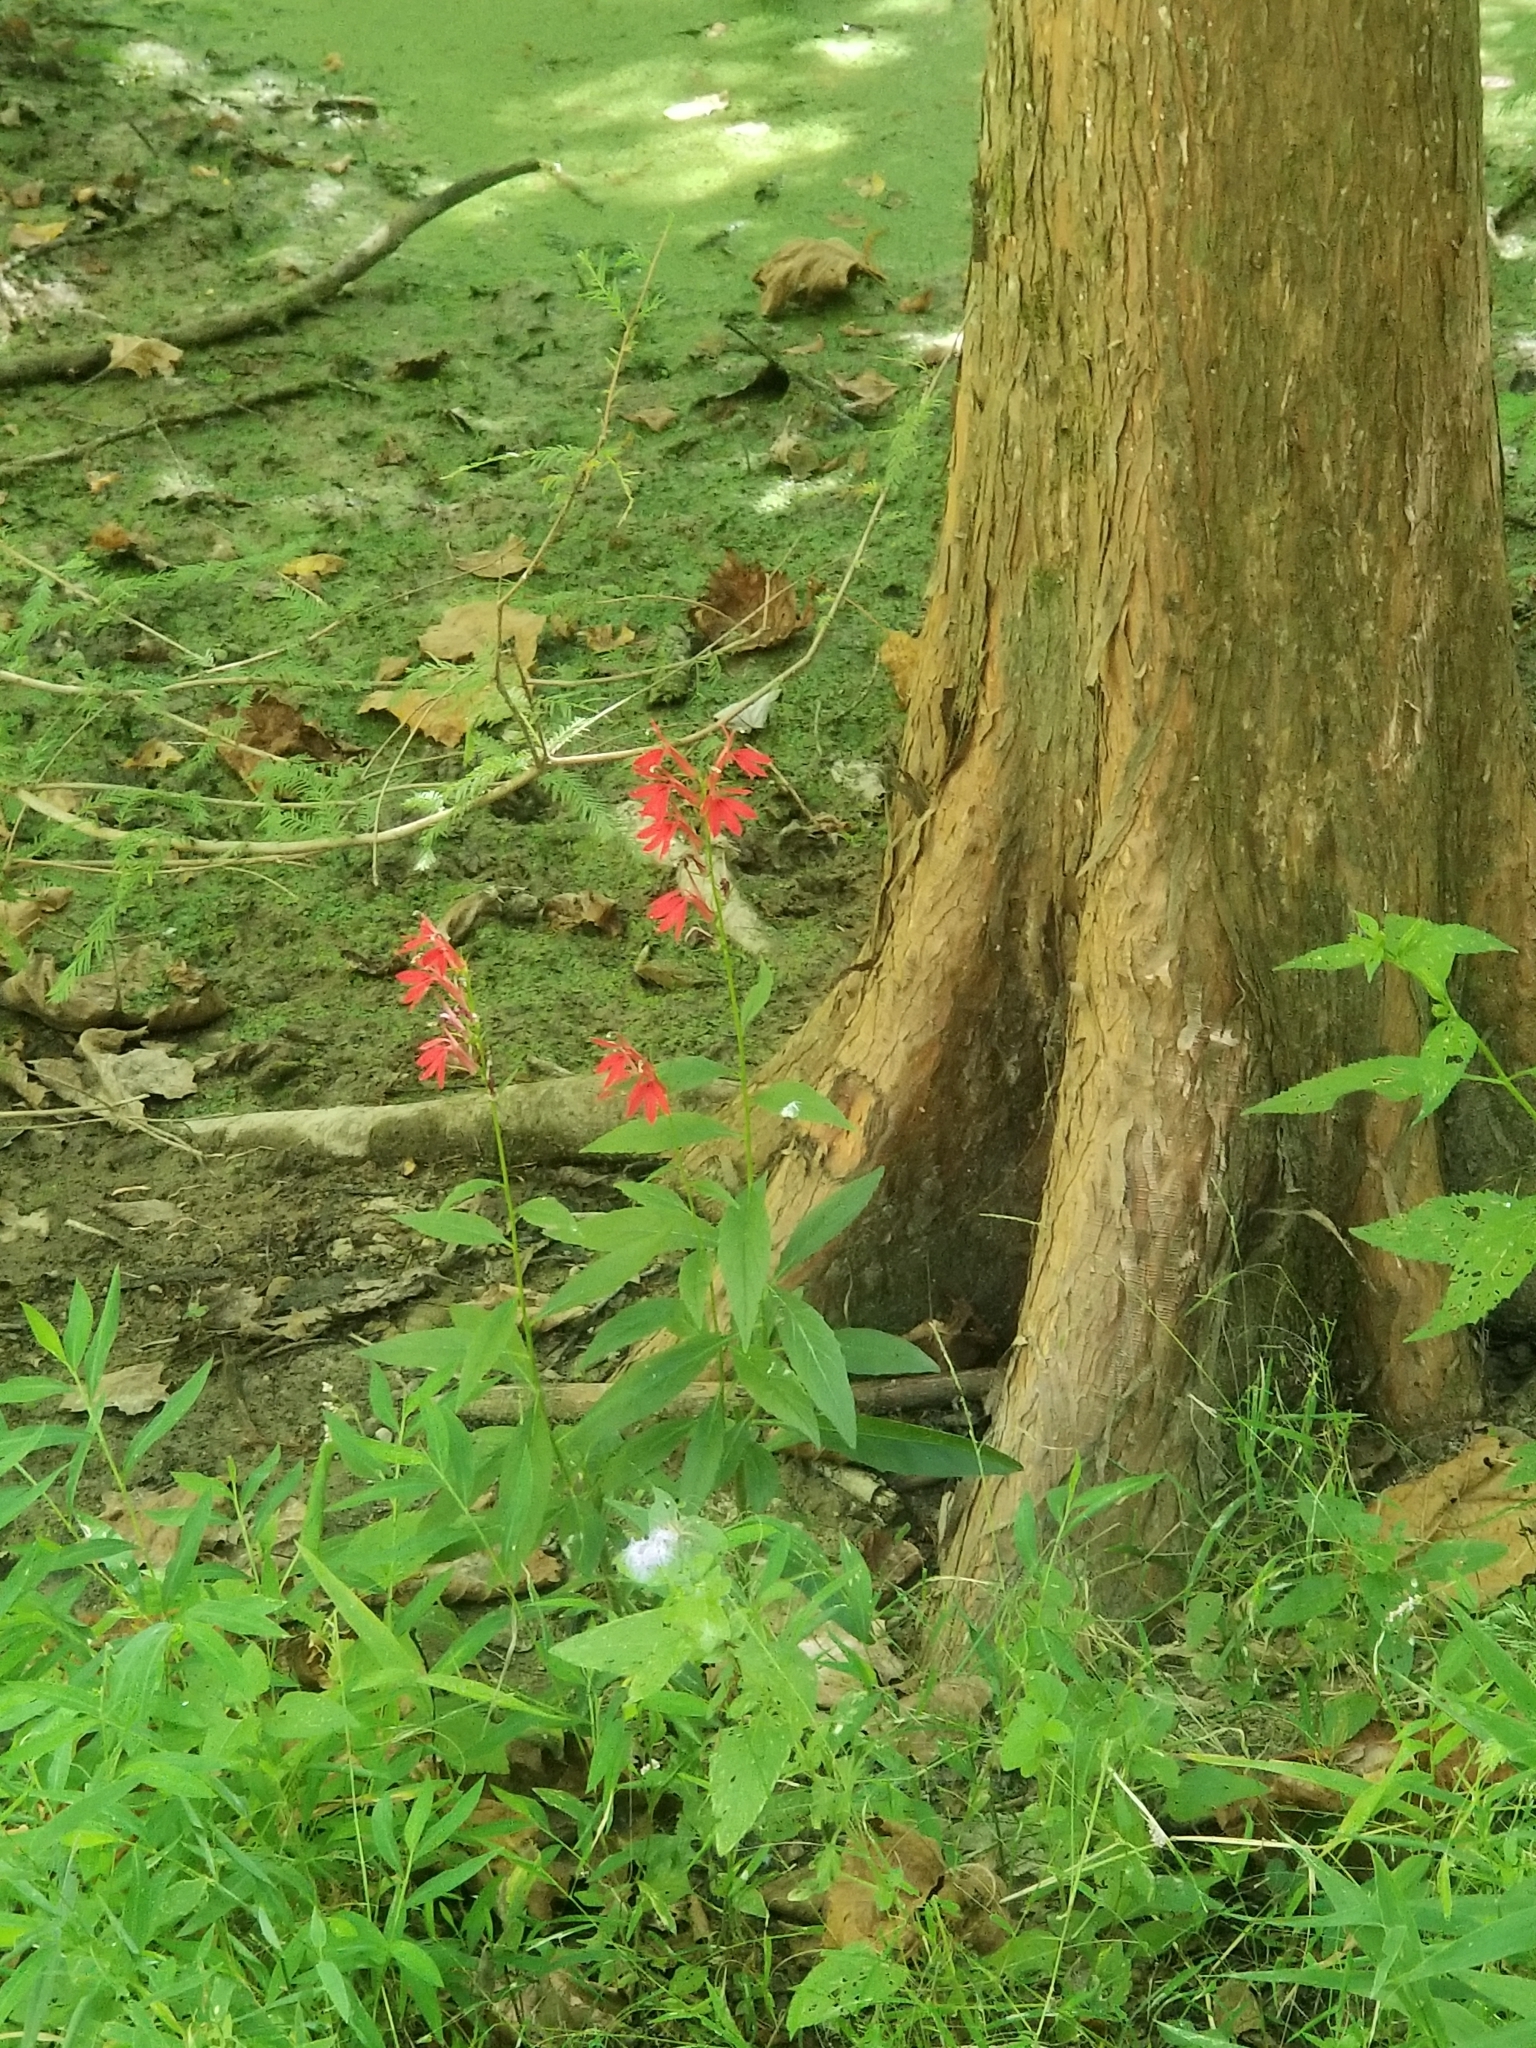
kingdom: Plantae
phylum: Tracheophyta
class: Magnoliopsida
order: Asterales
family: Campanulaceae
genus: Lobelia
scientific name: Lobelia cardinalis
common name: Cardinal flower
